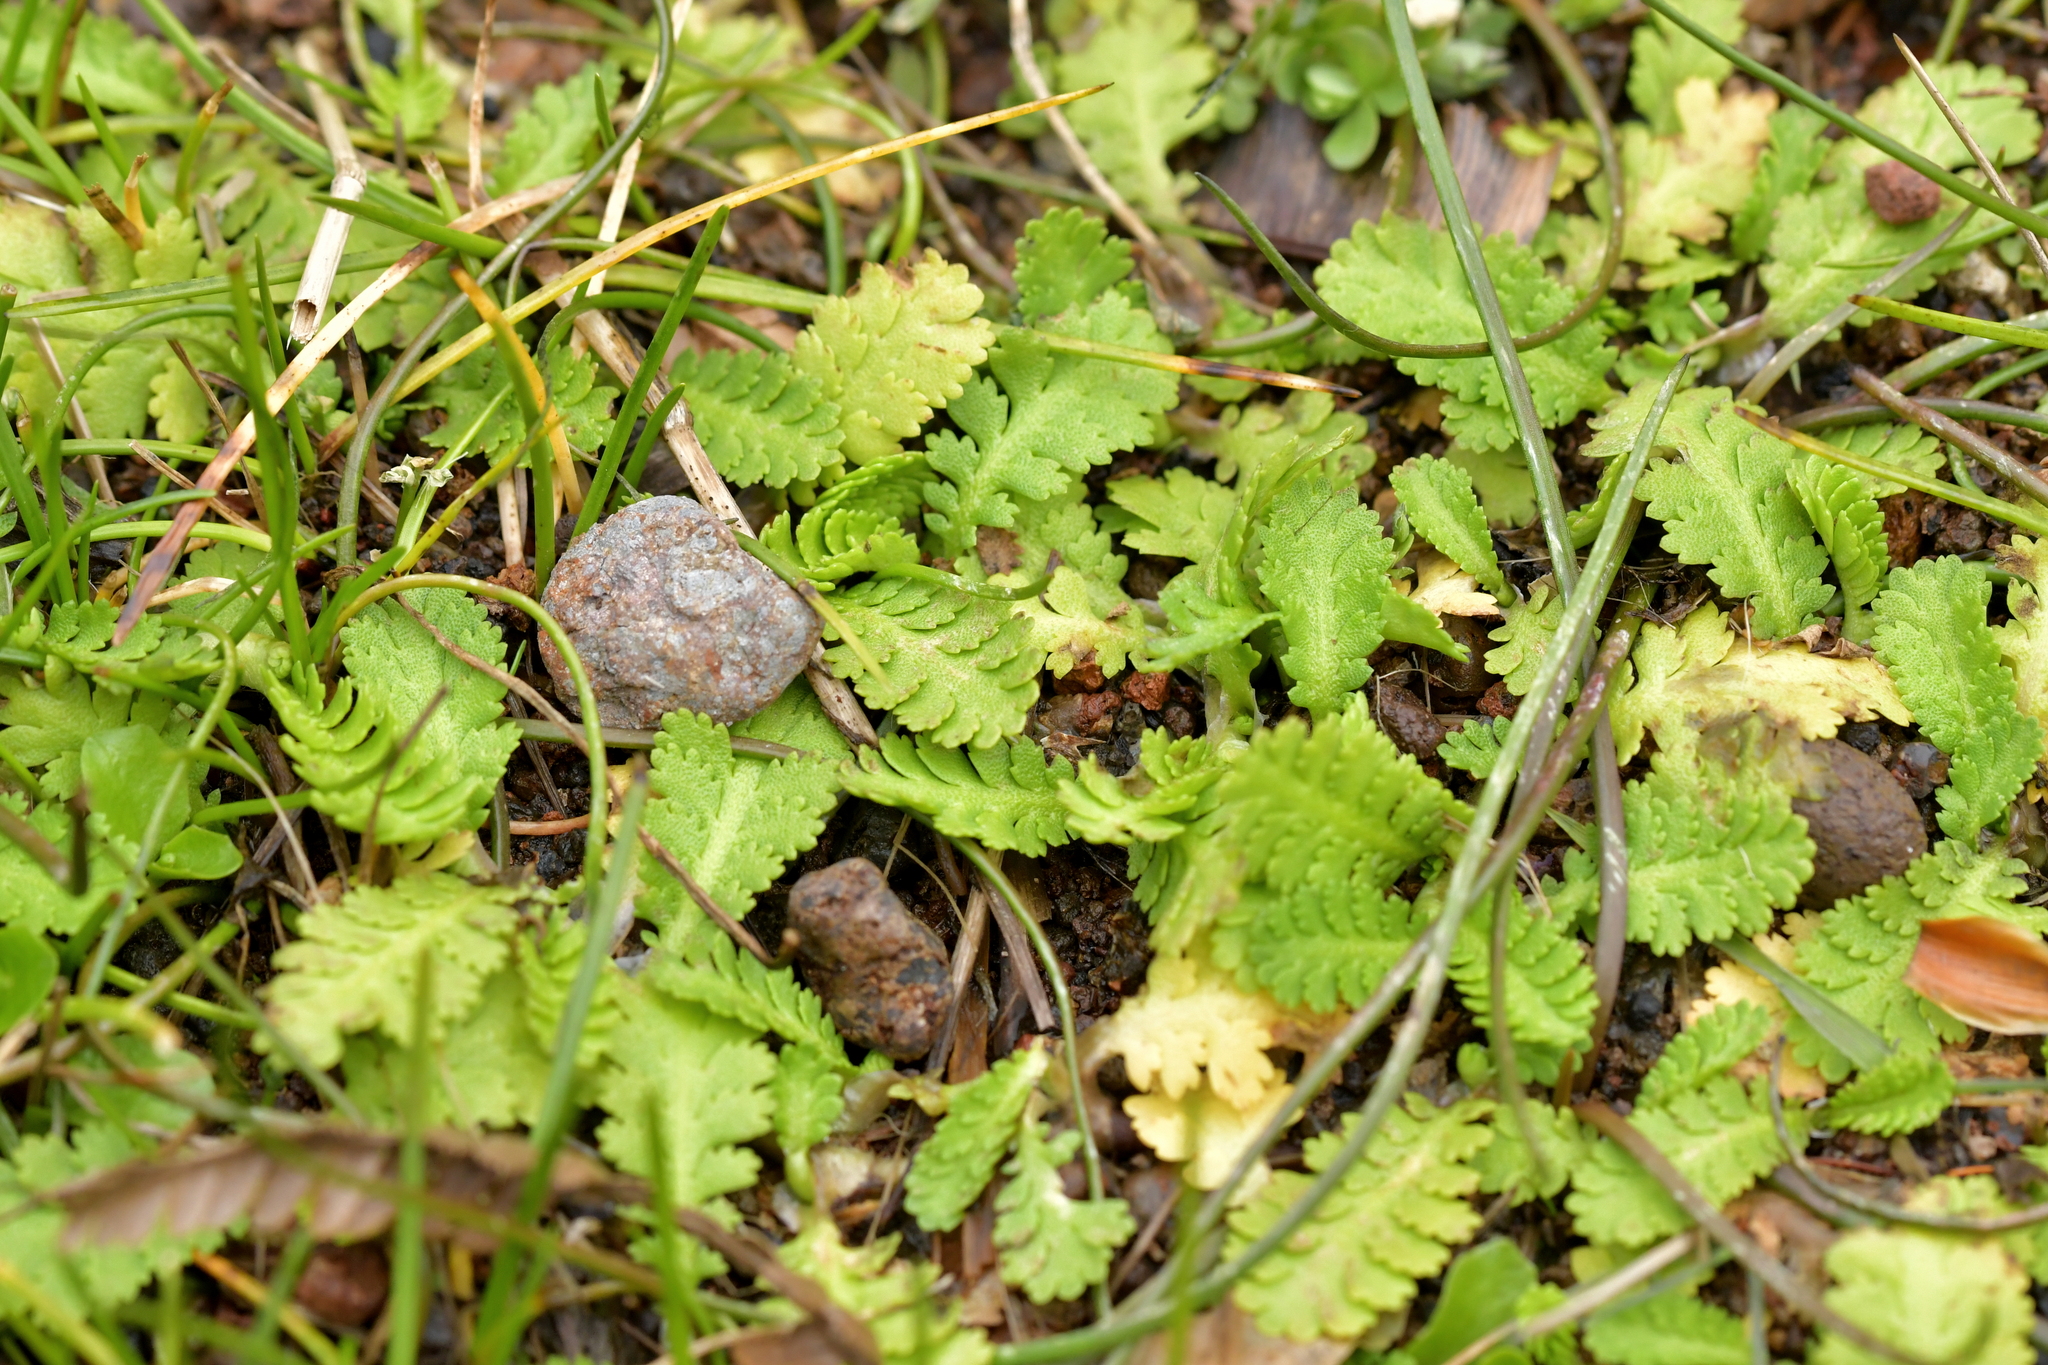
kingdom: Plantae
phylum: Tracheophyta
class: Magnoliopsida
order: Asterales
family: Asteraceae
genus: Leptinella
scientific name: Leptinella potentillina
